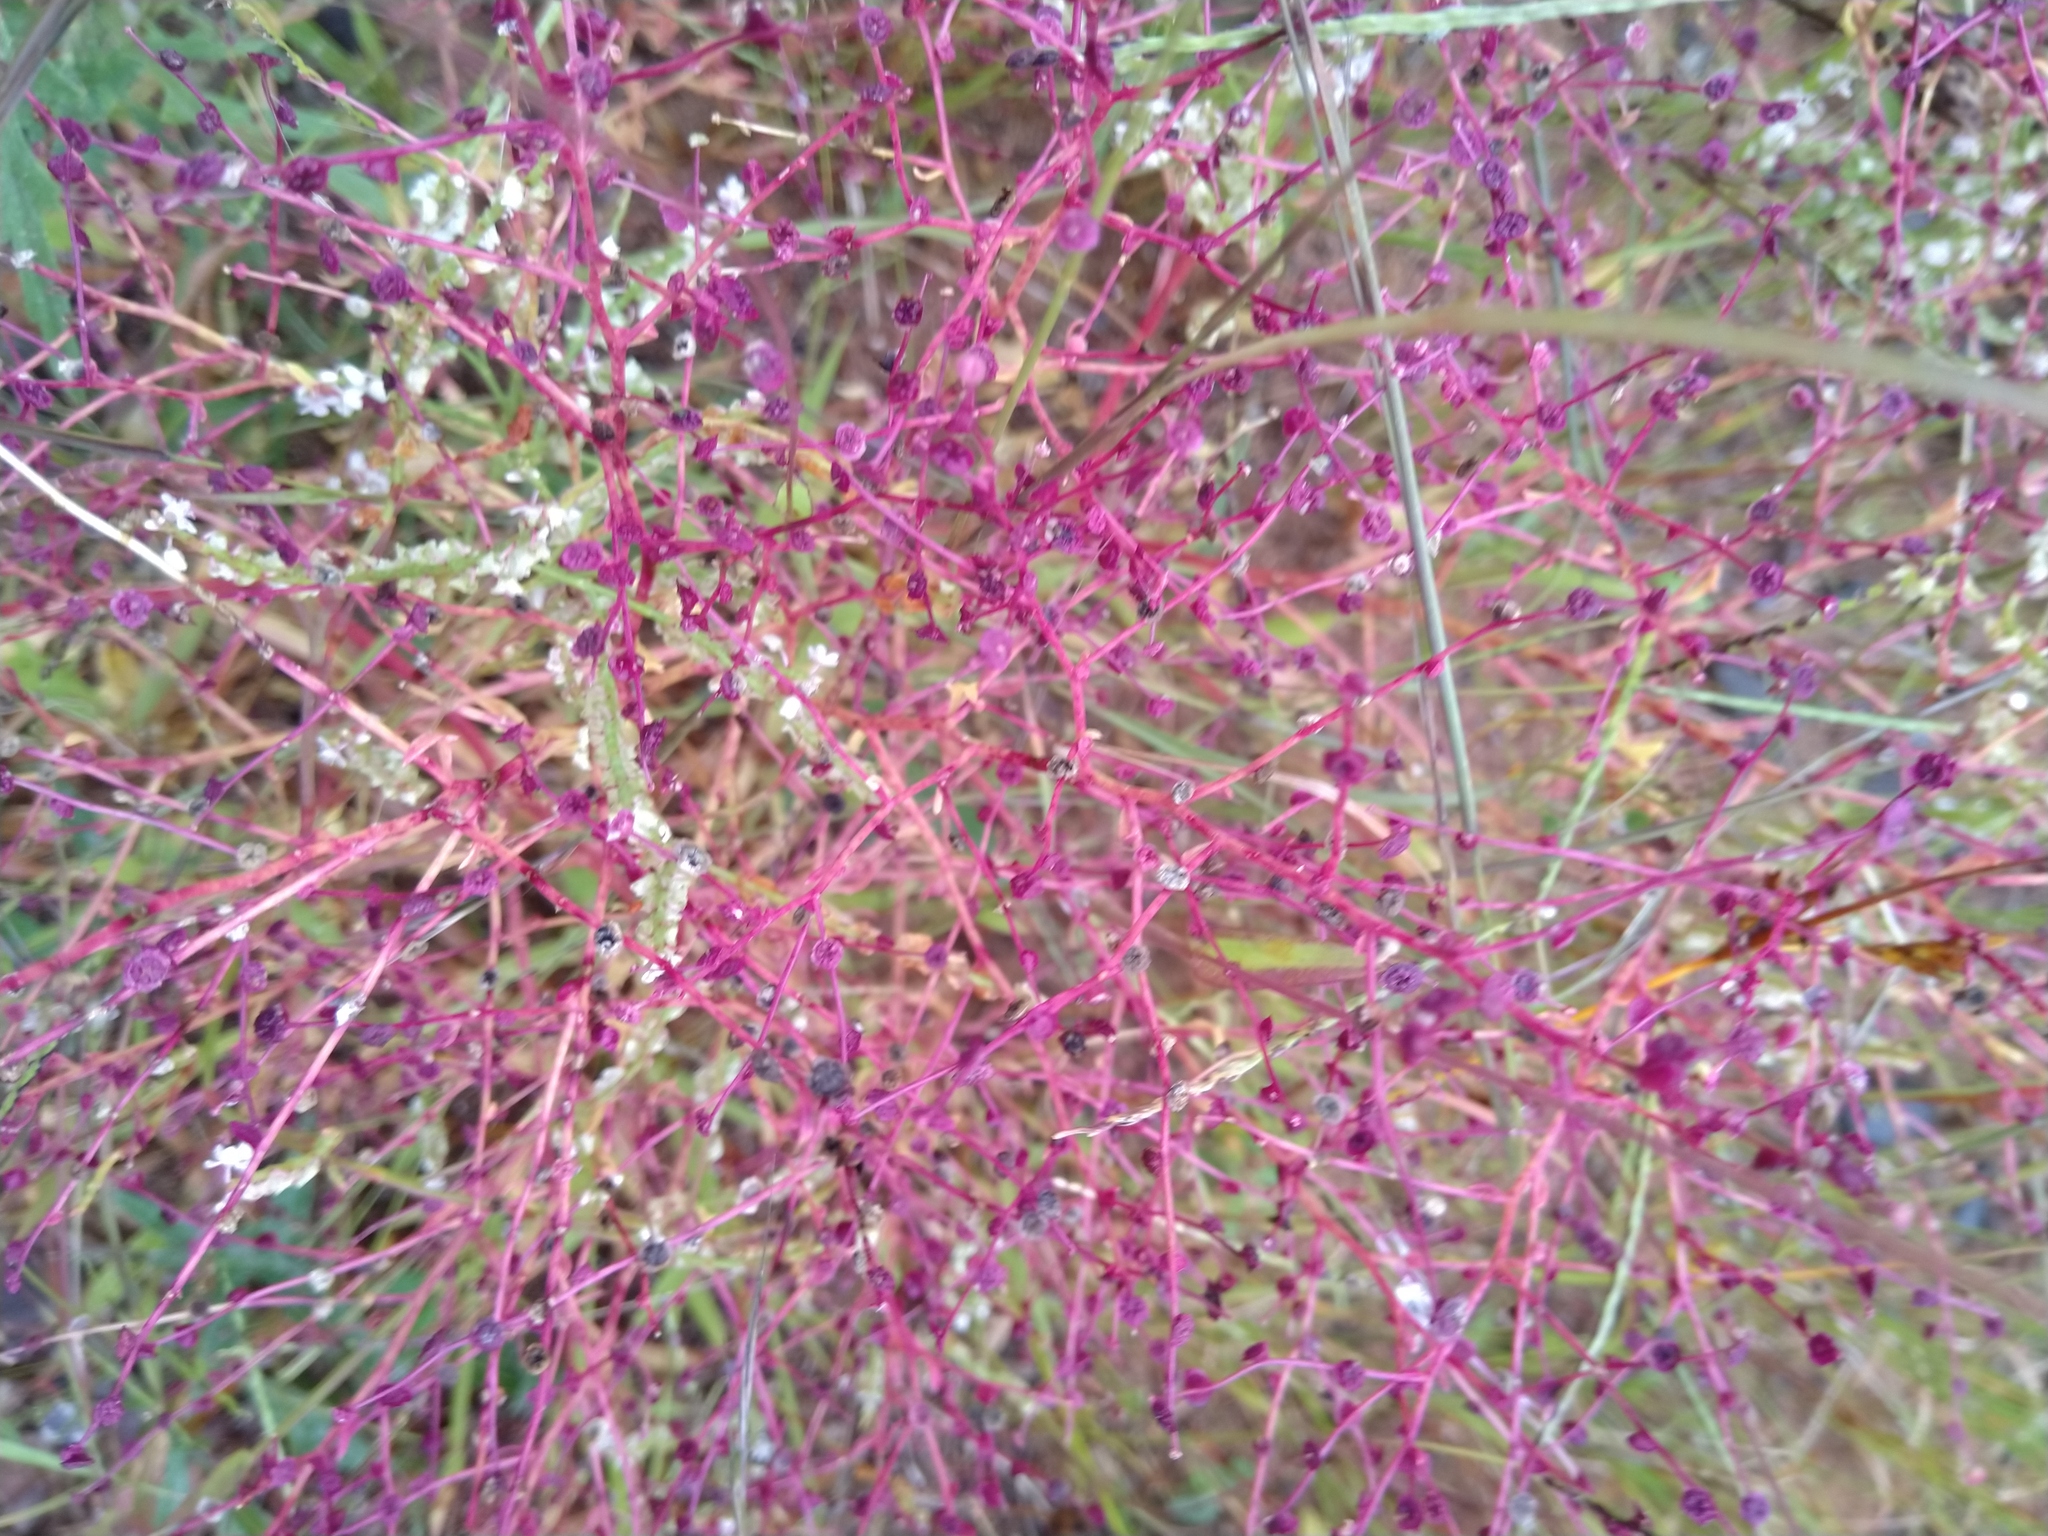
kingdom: Plantae
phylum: Tracheophyta
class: Magnoliopsida
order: Caryophyllales
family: Amaranthaceae
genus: Dysphania
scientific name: Dysphania atriplicifolia
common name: Plains tumbleweed
